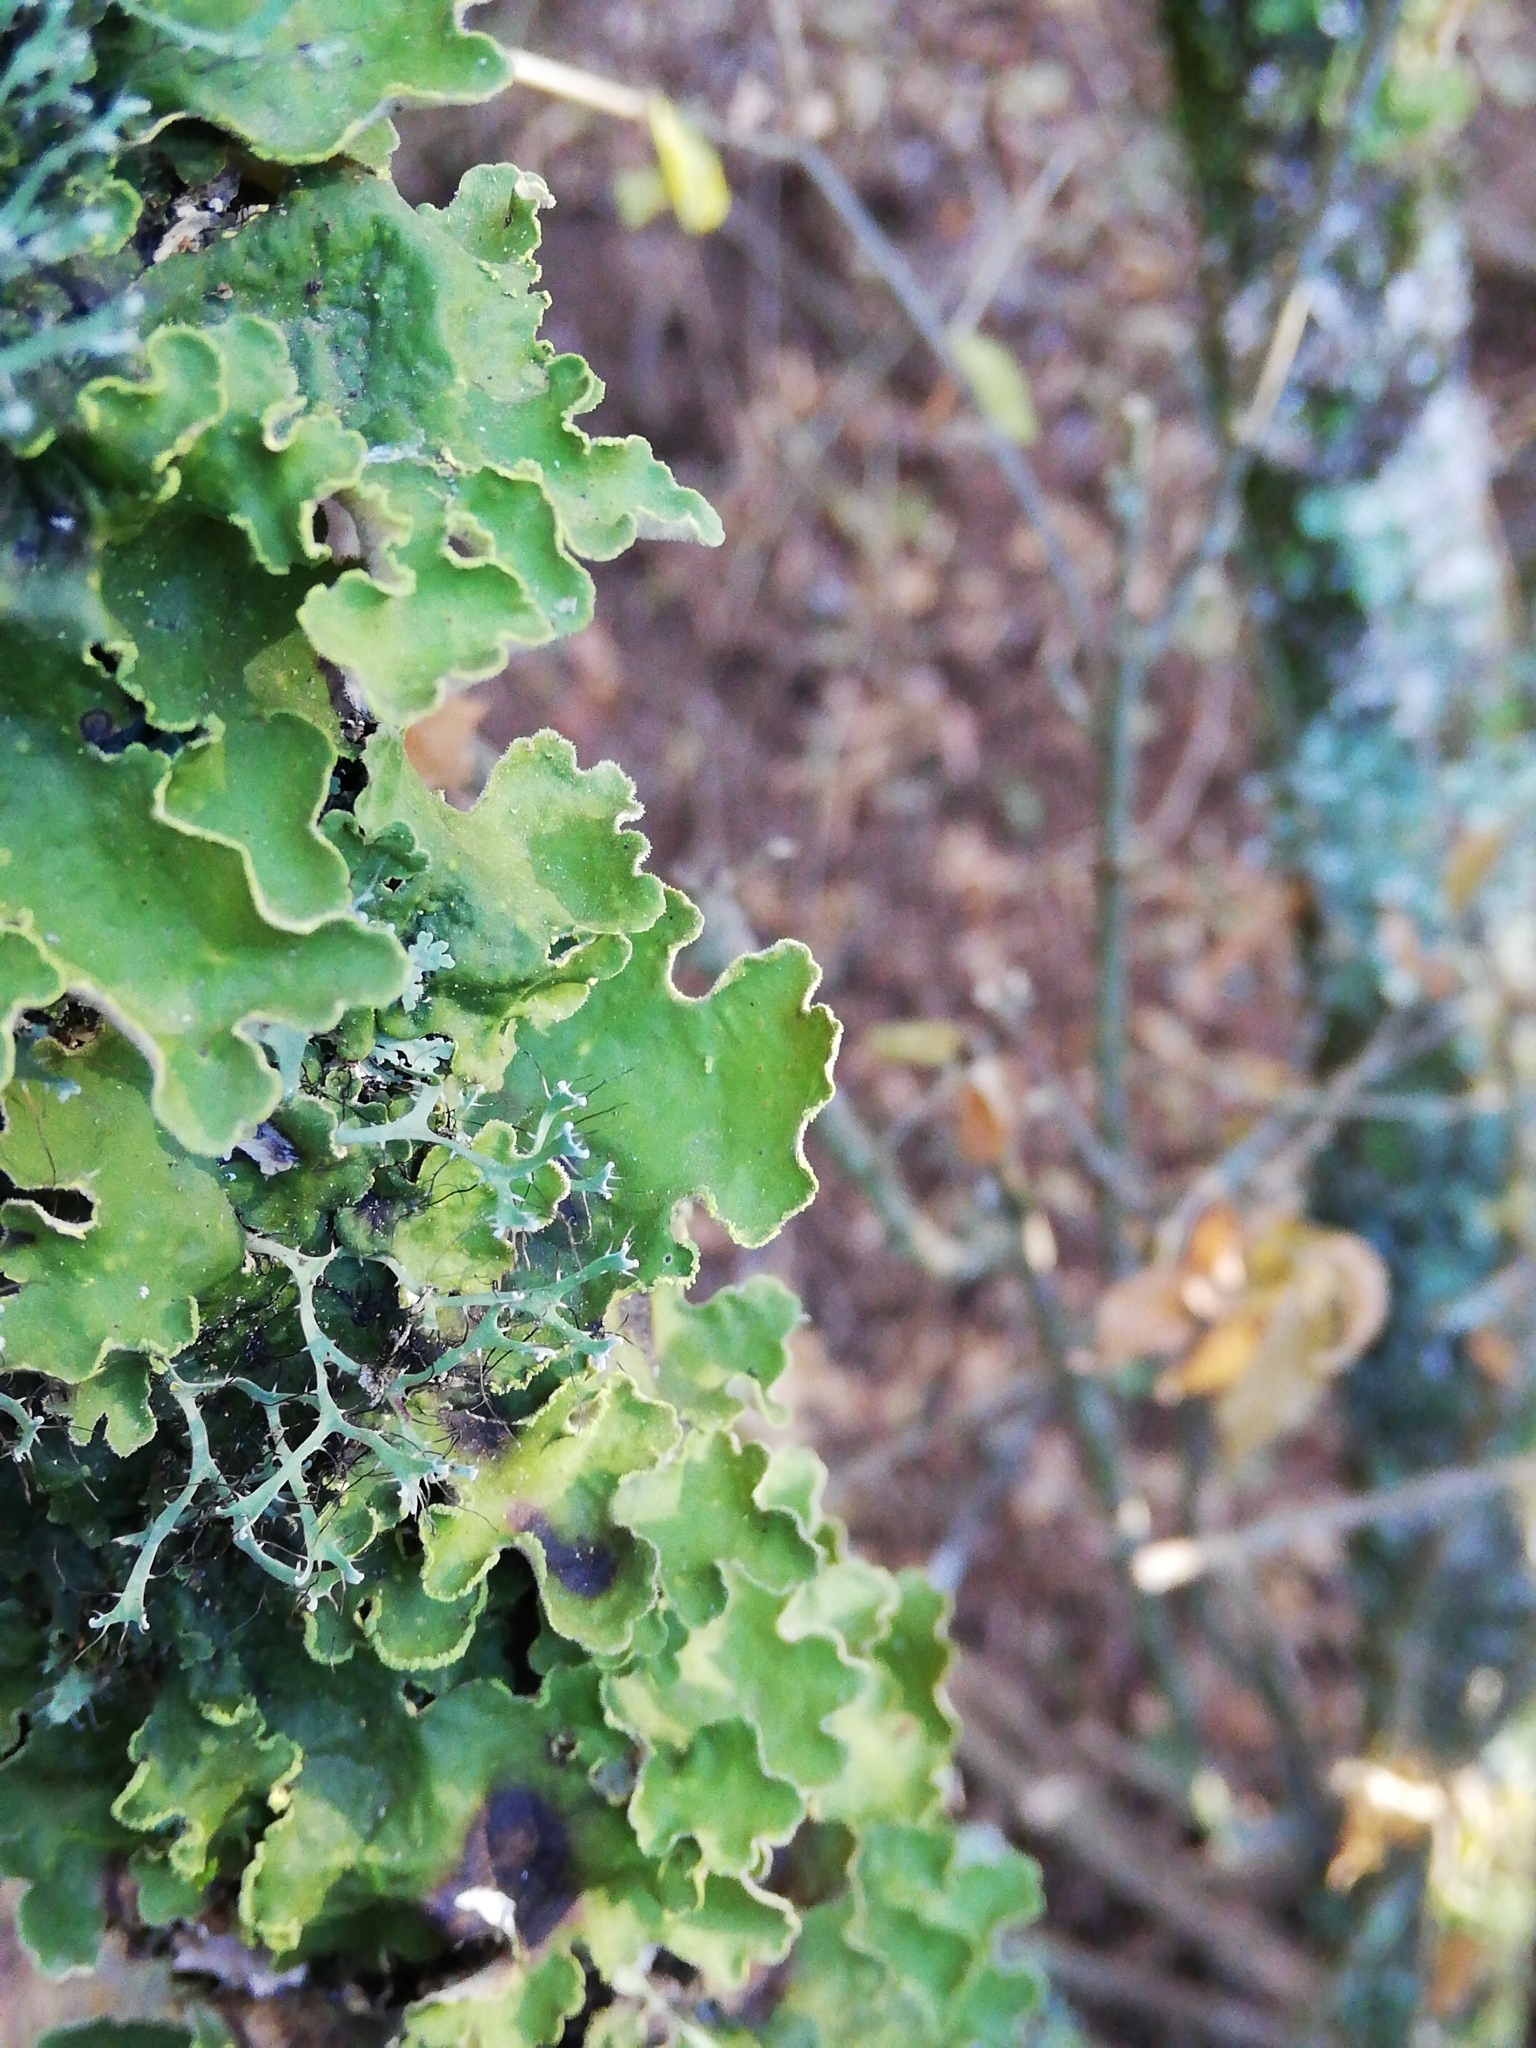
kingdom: Fungi
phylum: Ascomycota
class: Lecanoromycetes
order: Peltigerales
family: Lobariaceae
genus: Pseudocyphellaria
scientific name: Pseudocyphellaria aurata
